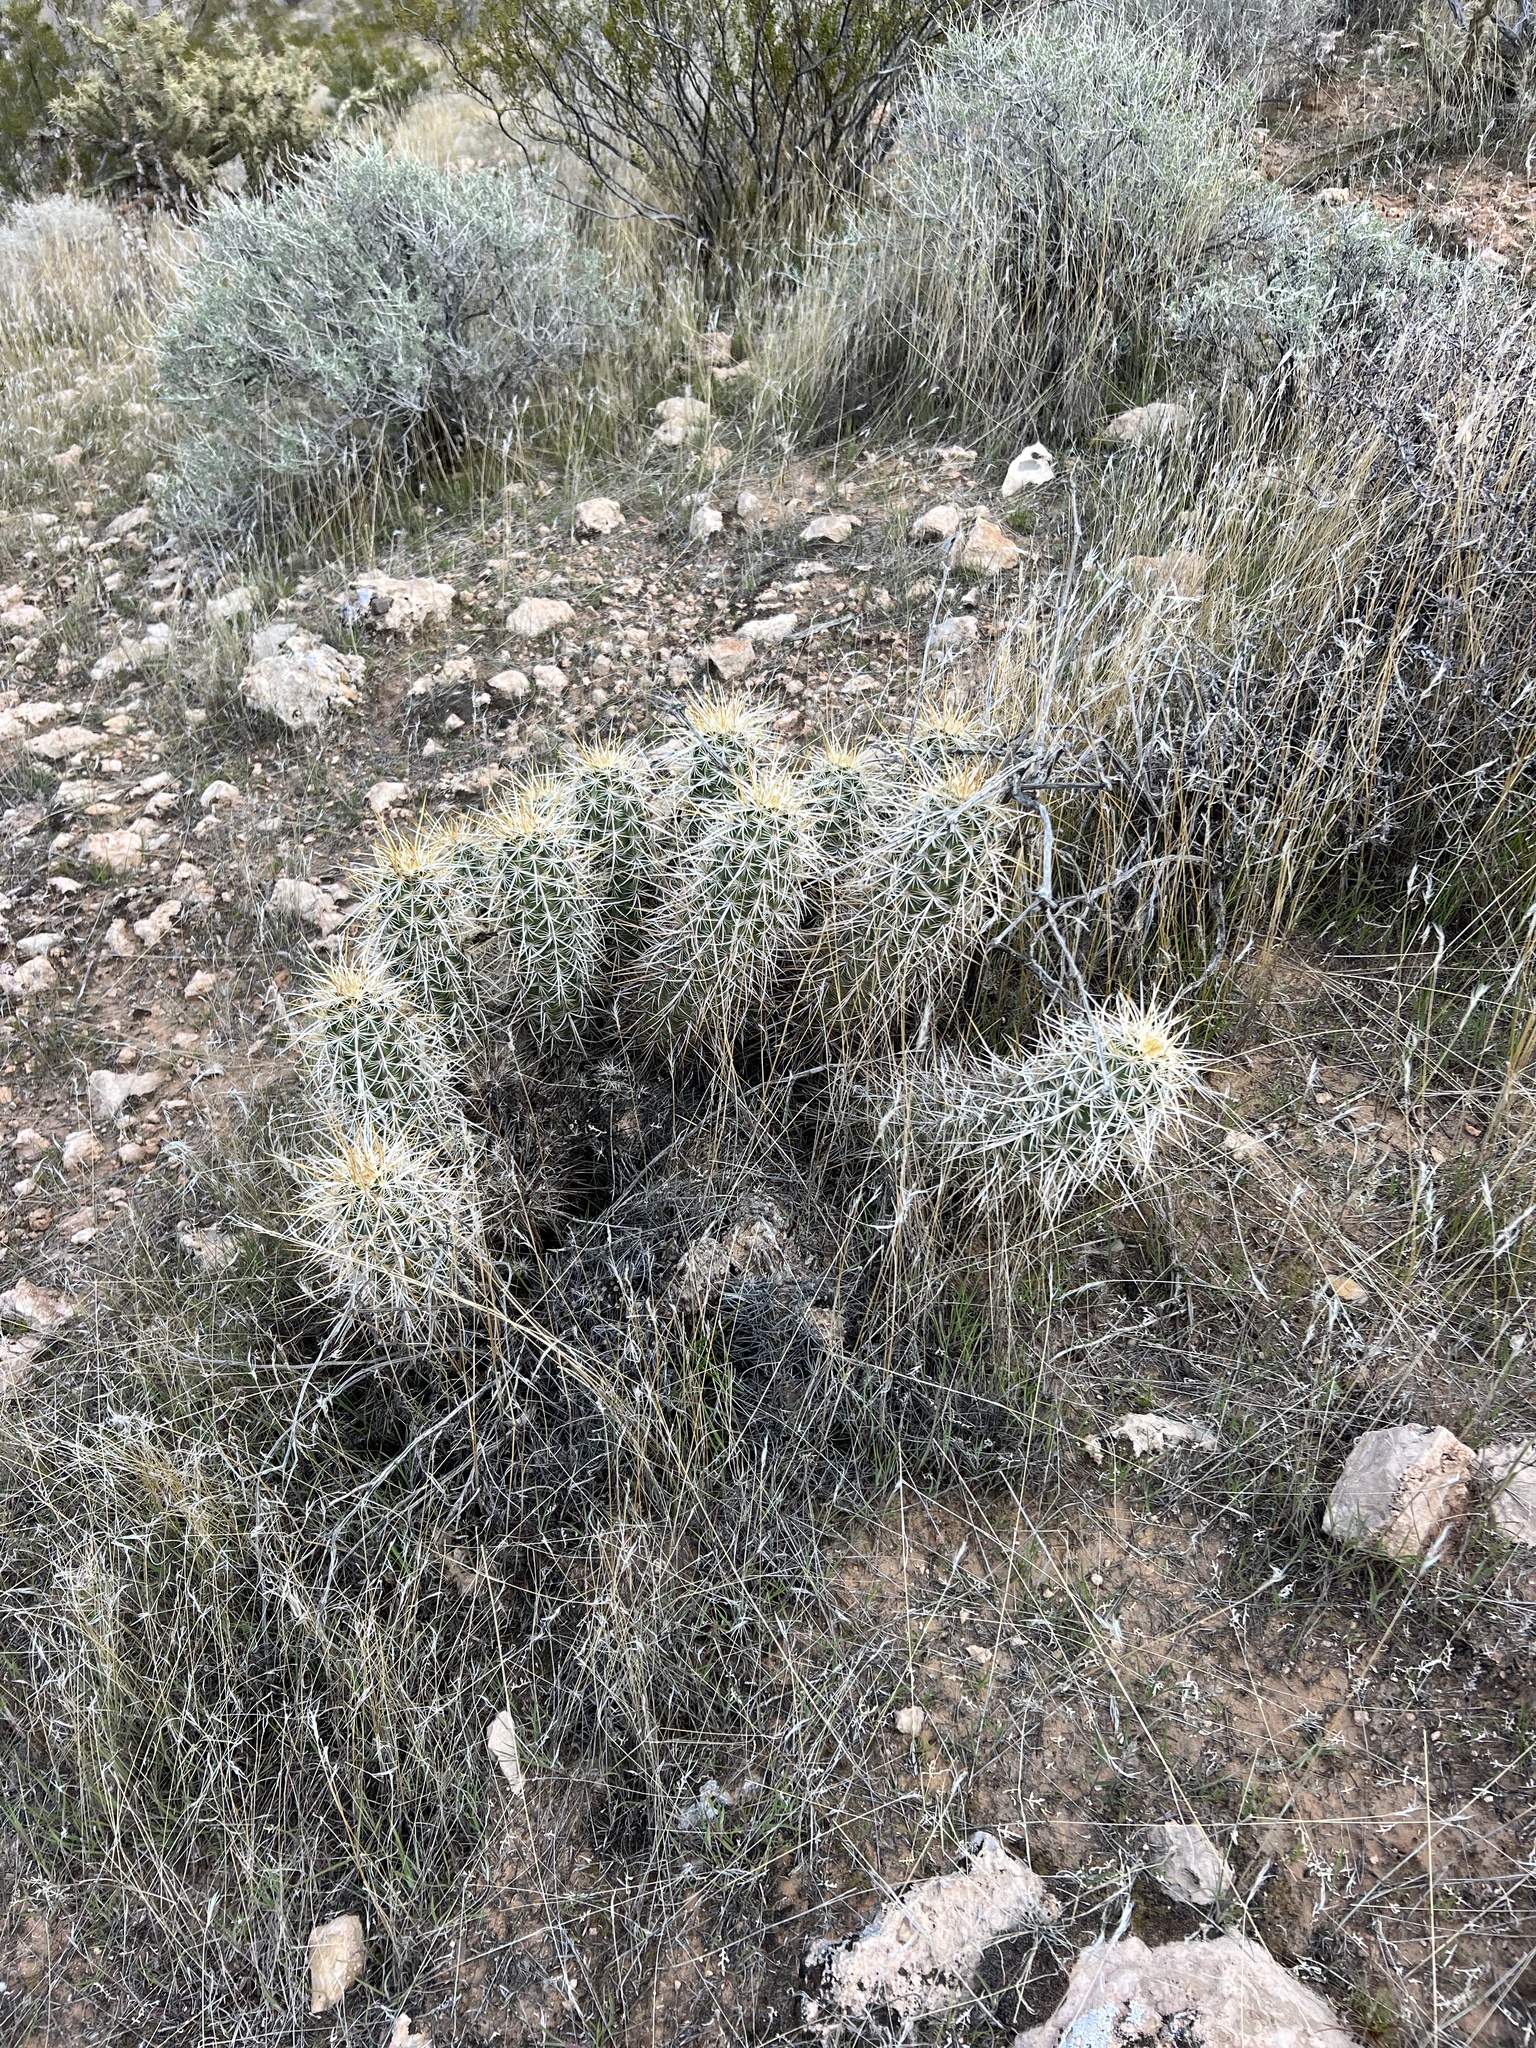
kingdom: Plantae
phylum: Tracheophyta
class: Magnoliopsida
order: Caryophyllales
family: Cactaceae
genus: Echinocereus
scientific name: Echinocereus engelmannii
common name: Engelmann's hedgehog cactus
